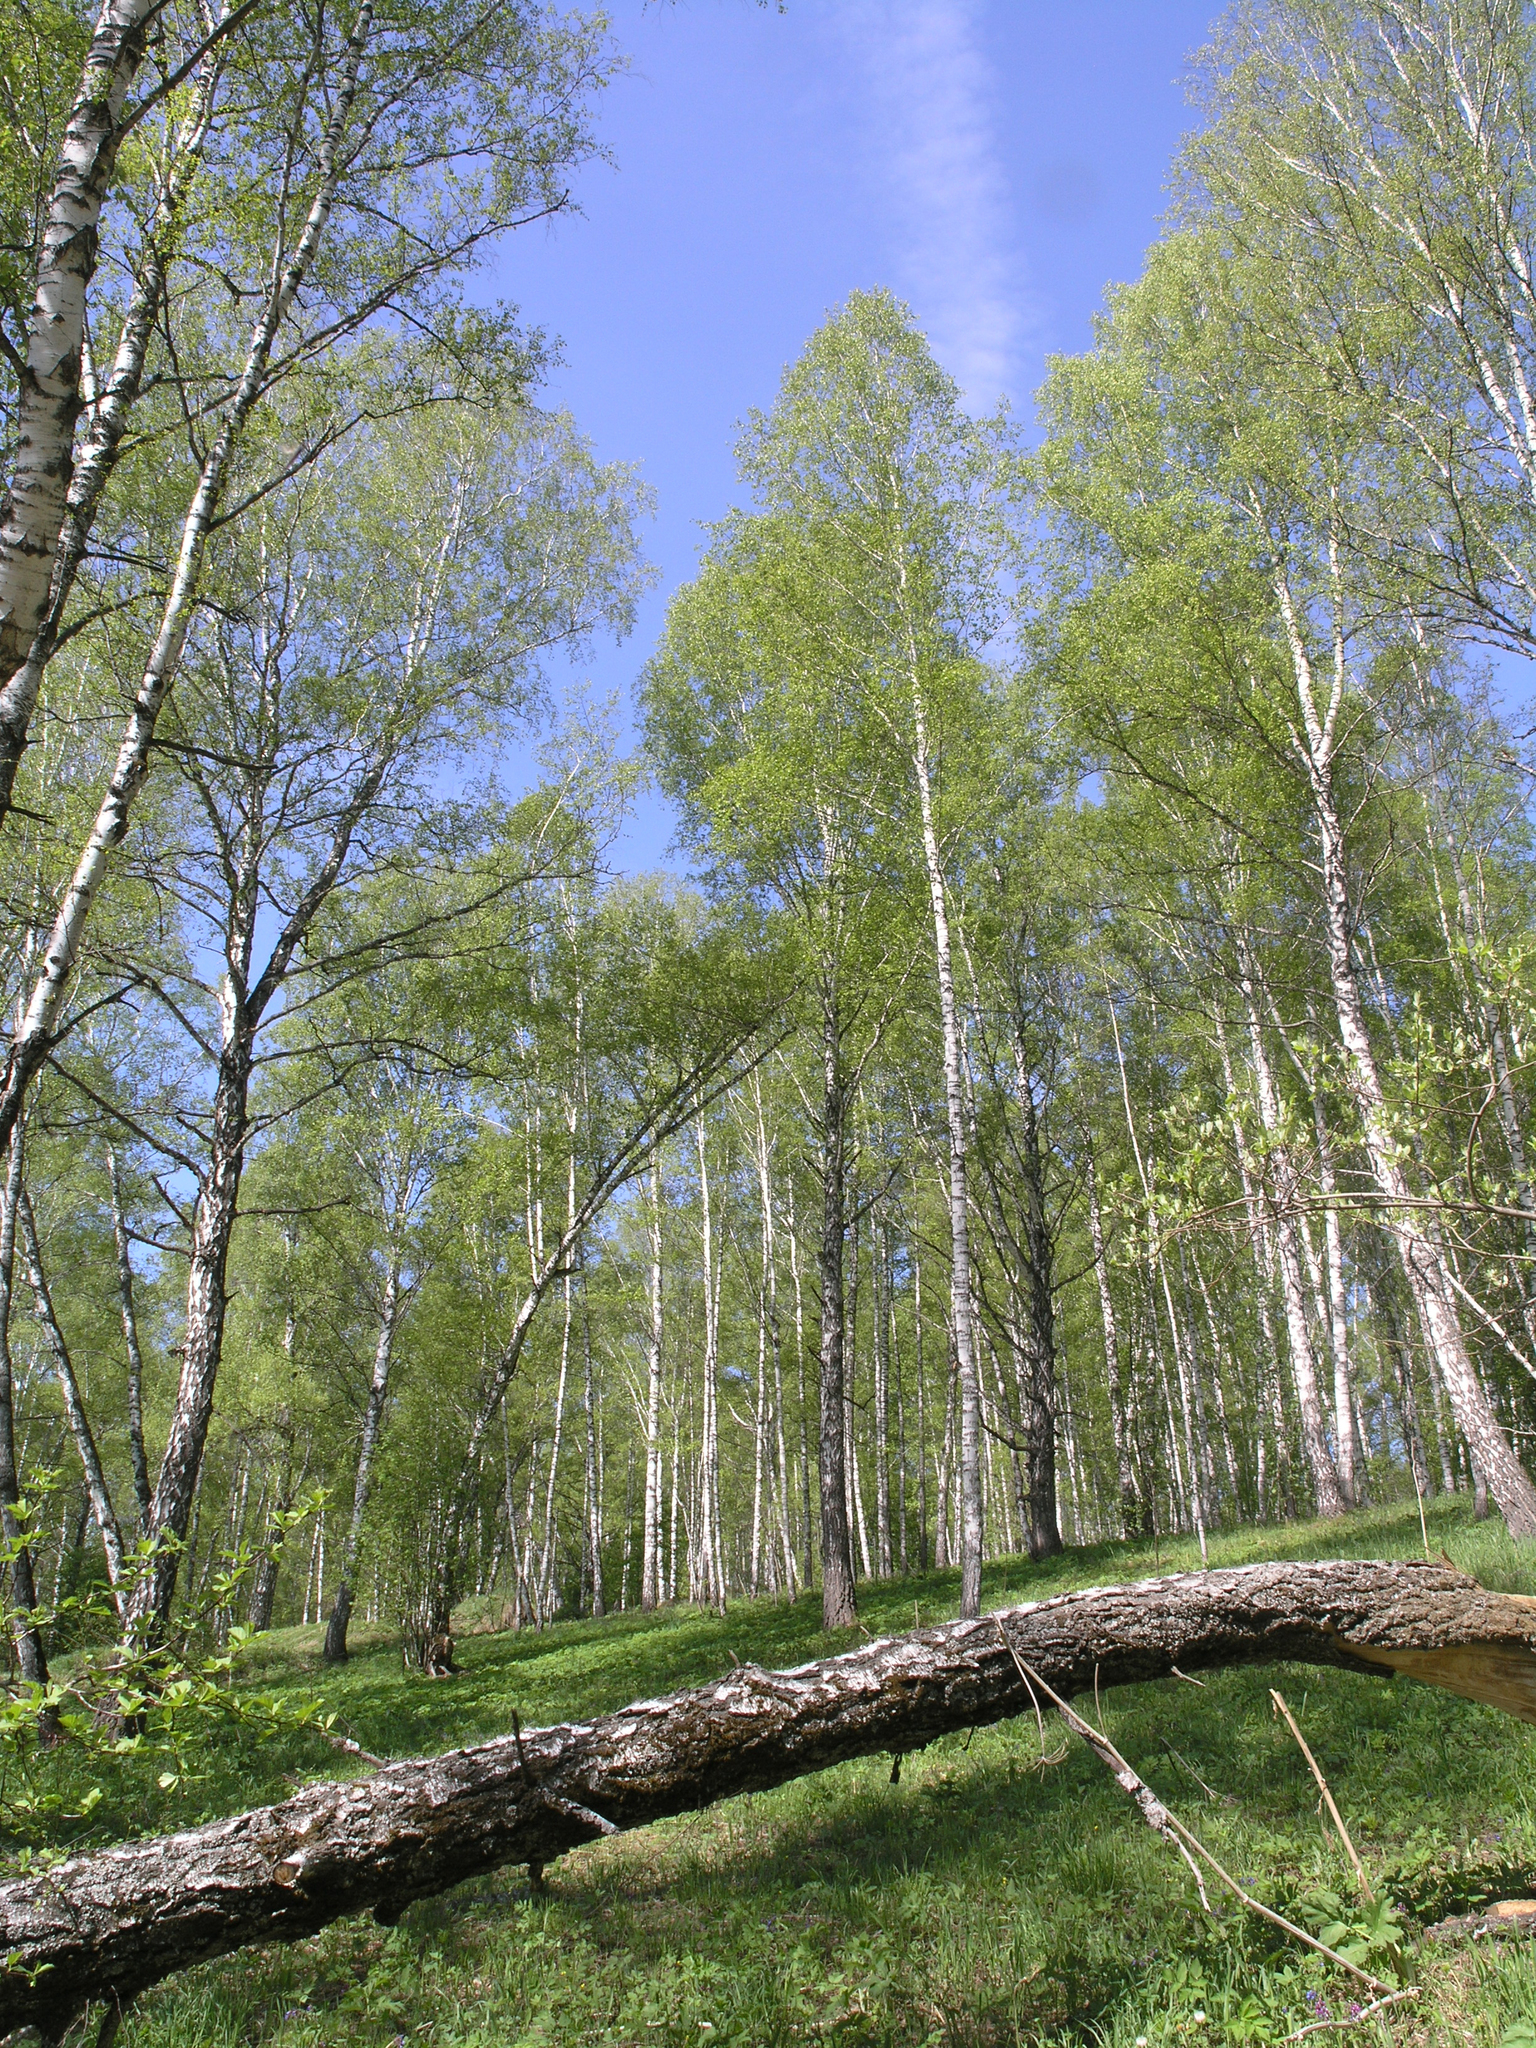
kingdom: Plantae
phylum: Tracheophyta
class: Magnoliopsida
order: Fagales
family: Betulaceae
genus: Betula
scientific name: Betula pendula
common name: Silver birch
